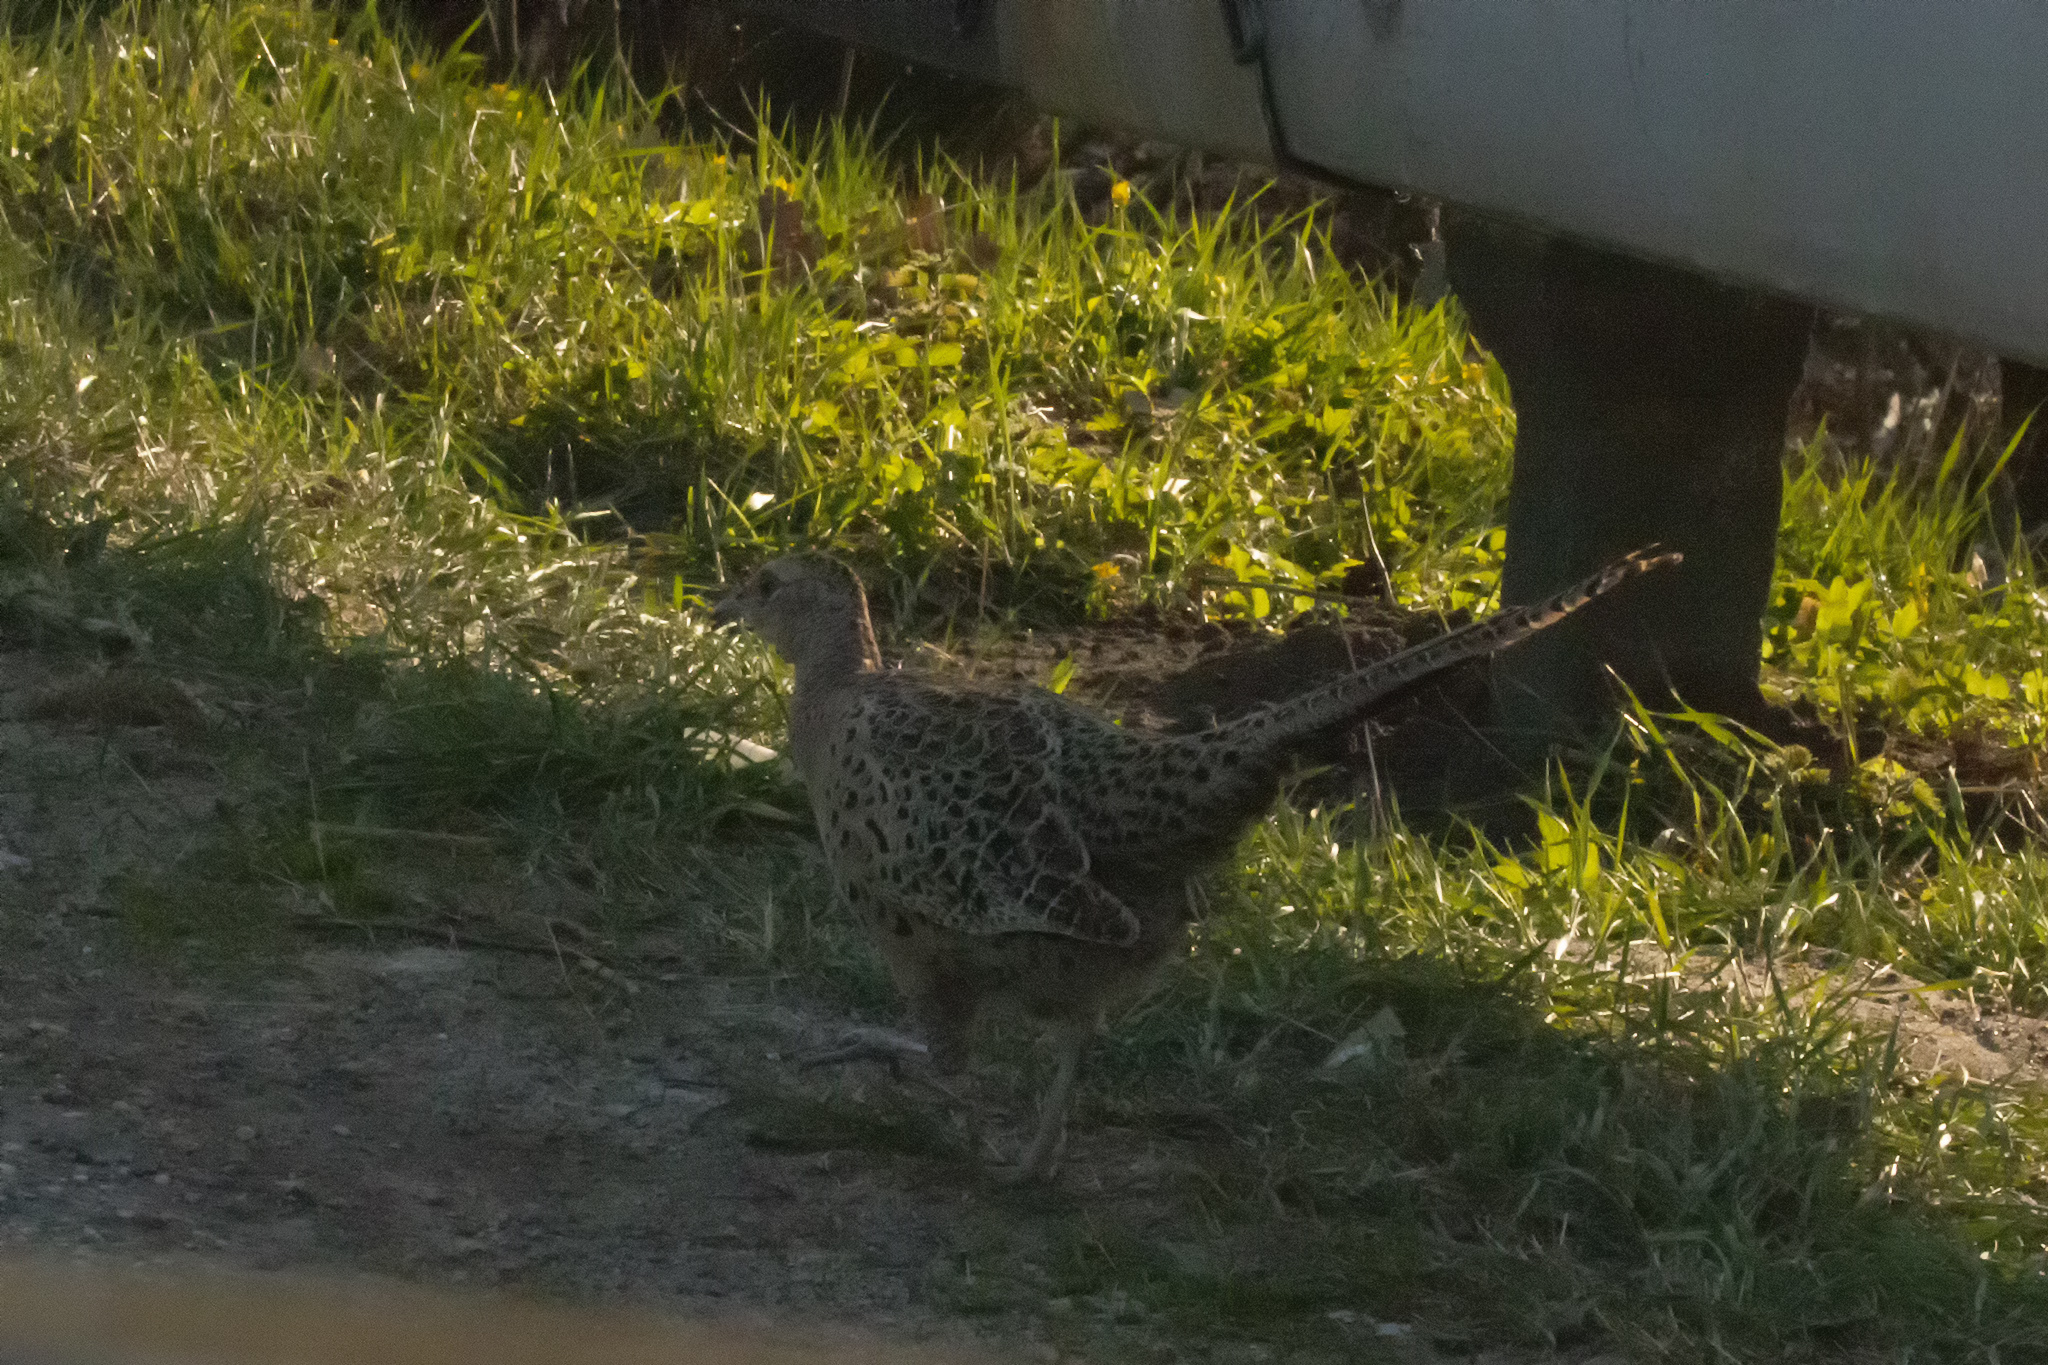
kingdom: Animalia
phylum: Chordata
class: Aves
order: Galliformes
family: Phasianidae
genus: Phasianus
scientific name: Phasianus colchicus
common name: Common pheasant
